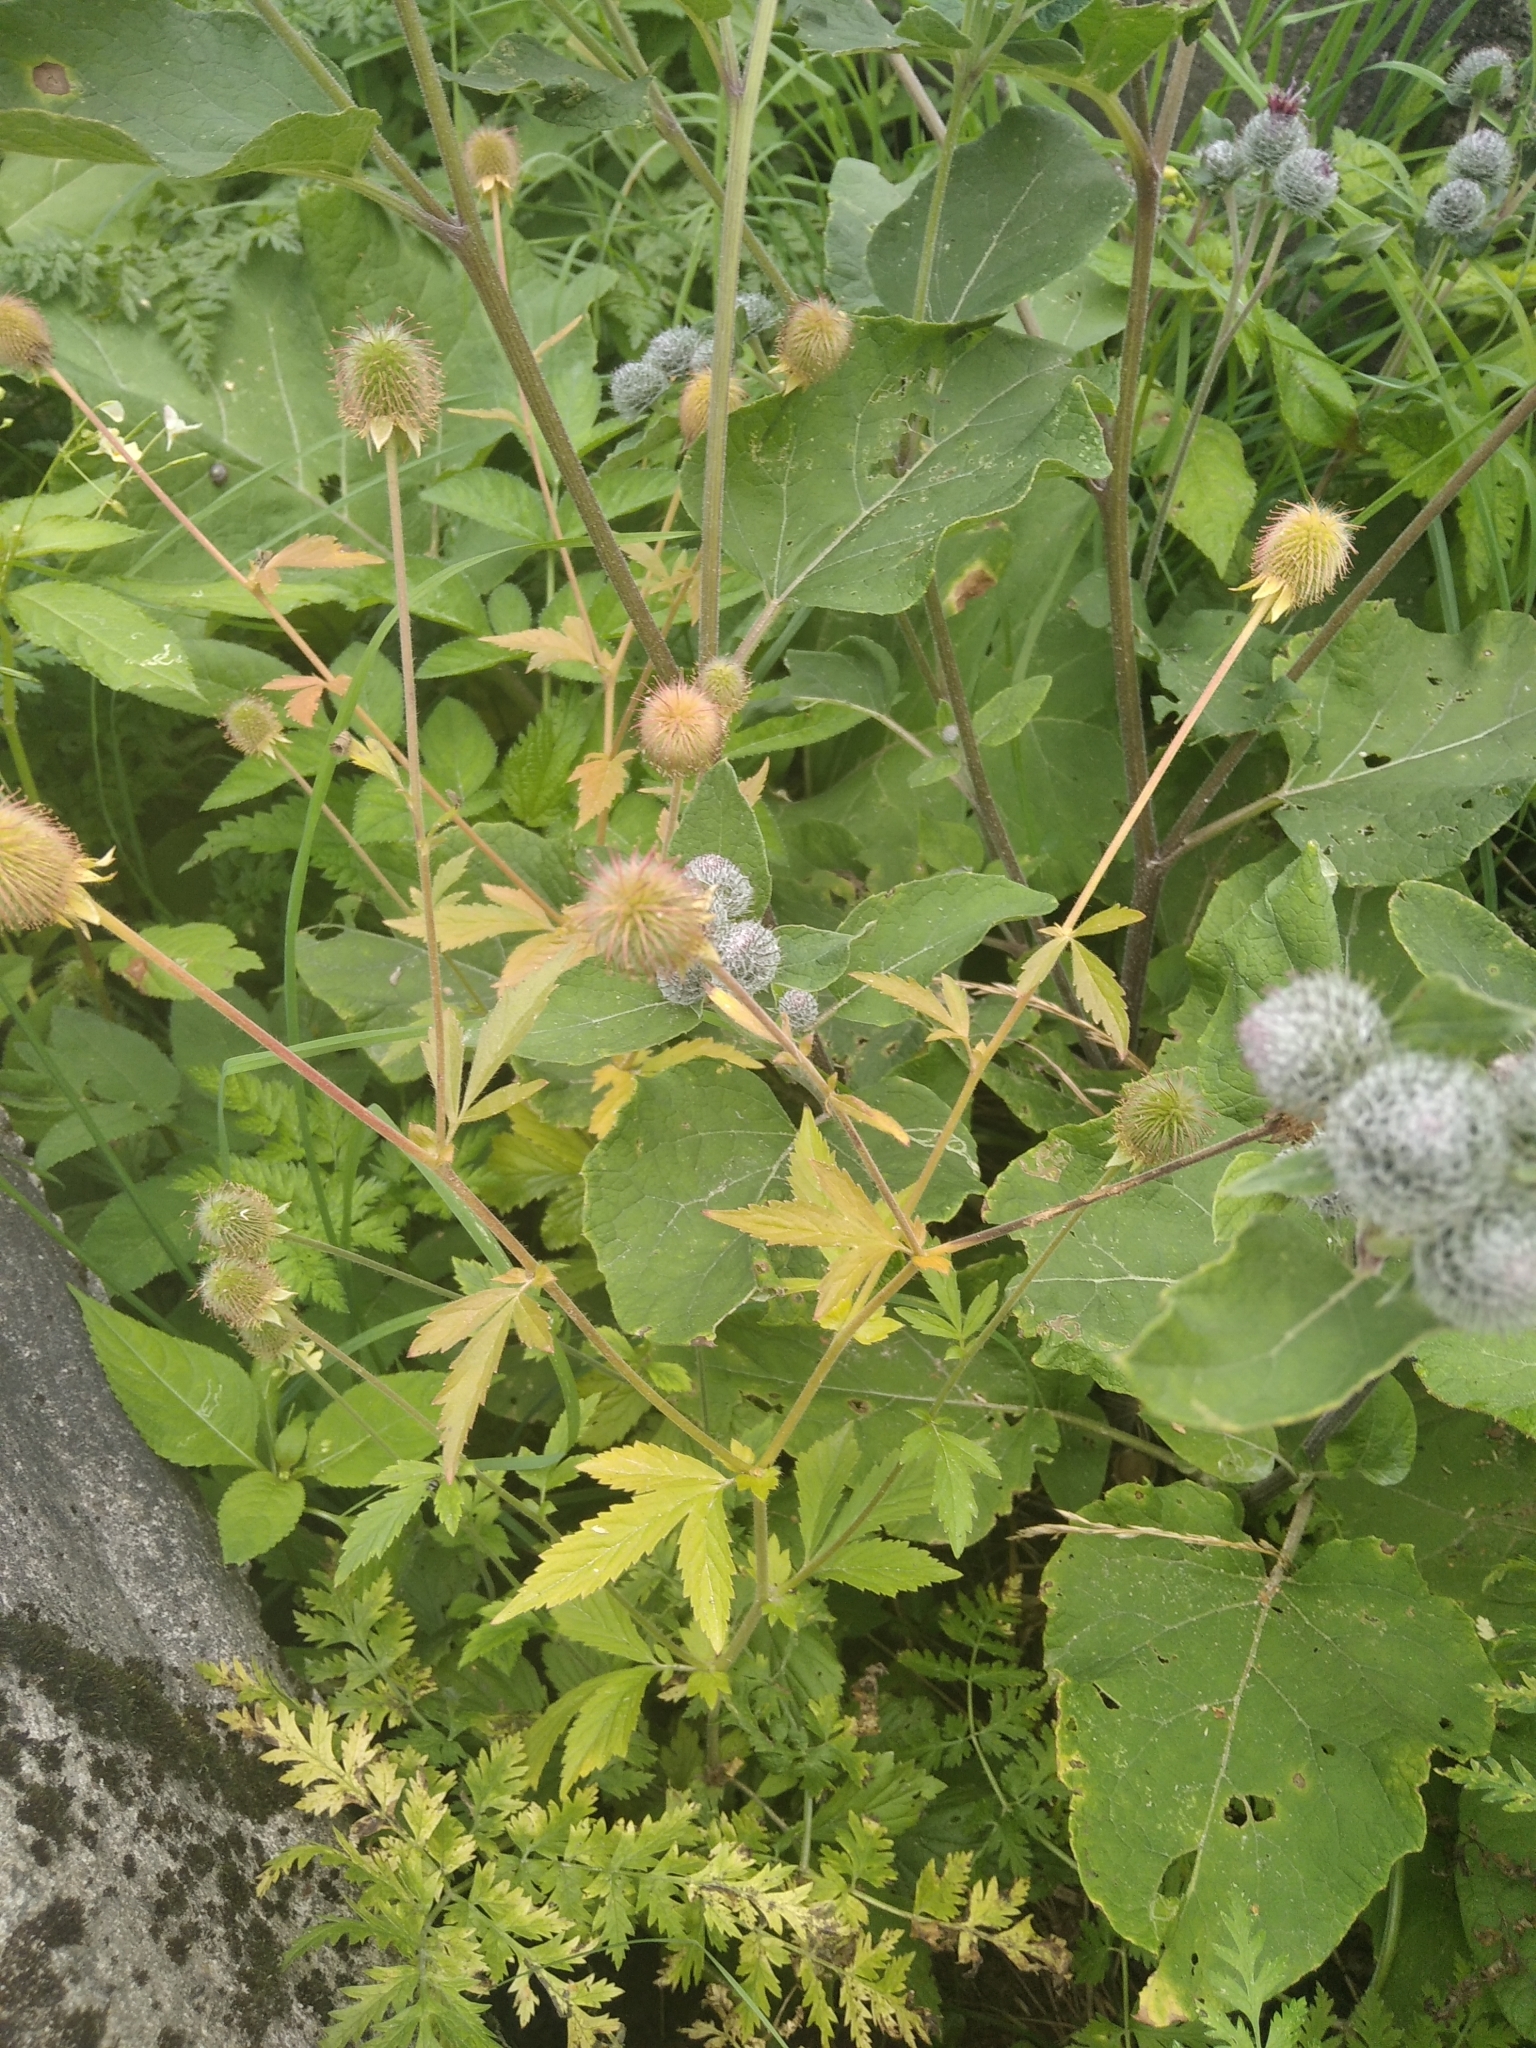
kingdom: Plantae
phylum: Tracheophyta
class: Magnoliopsida
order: Rosales
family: Rosaceae
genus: Geum
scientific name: Geum aleppicum
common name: Yellow avens
